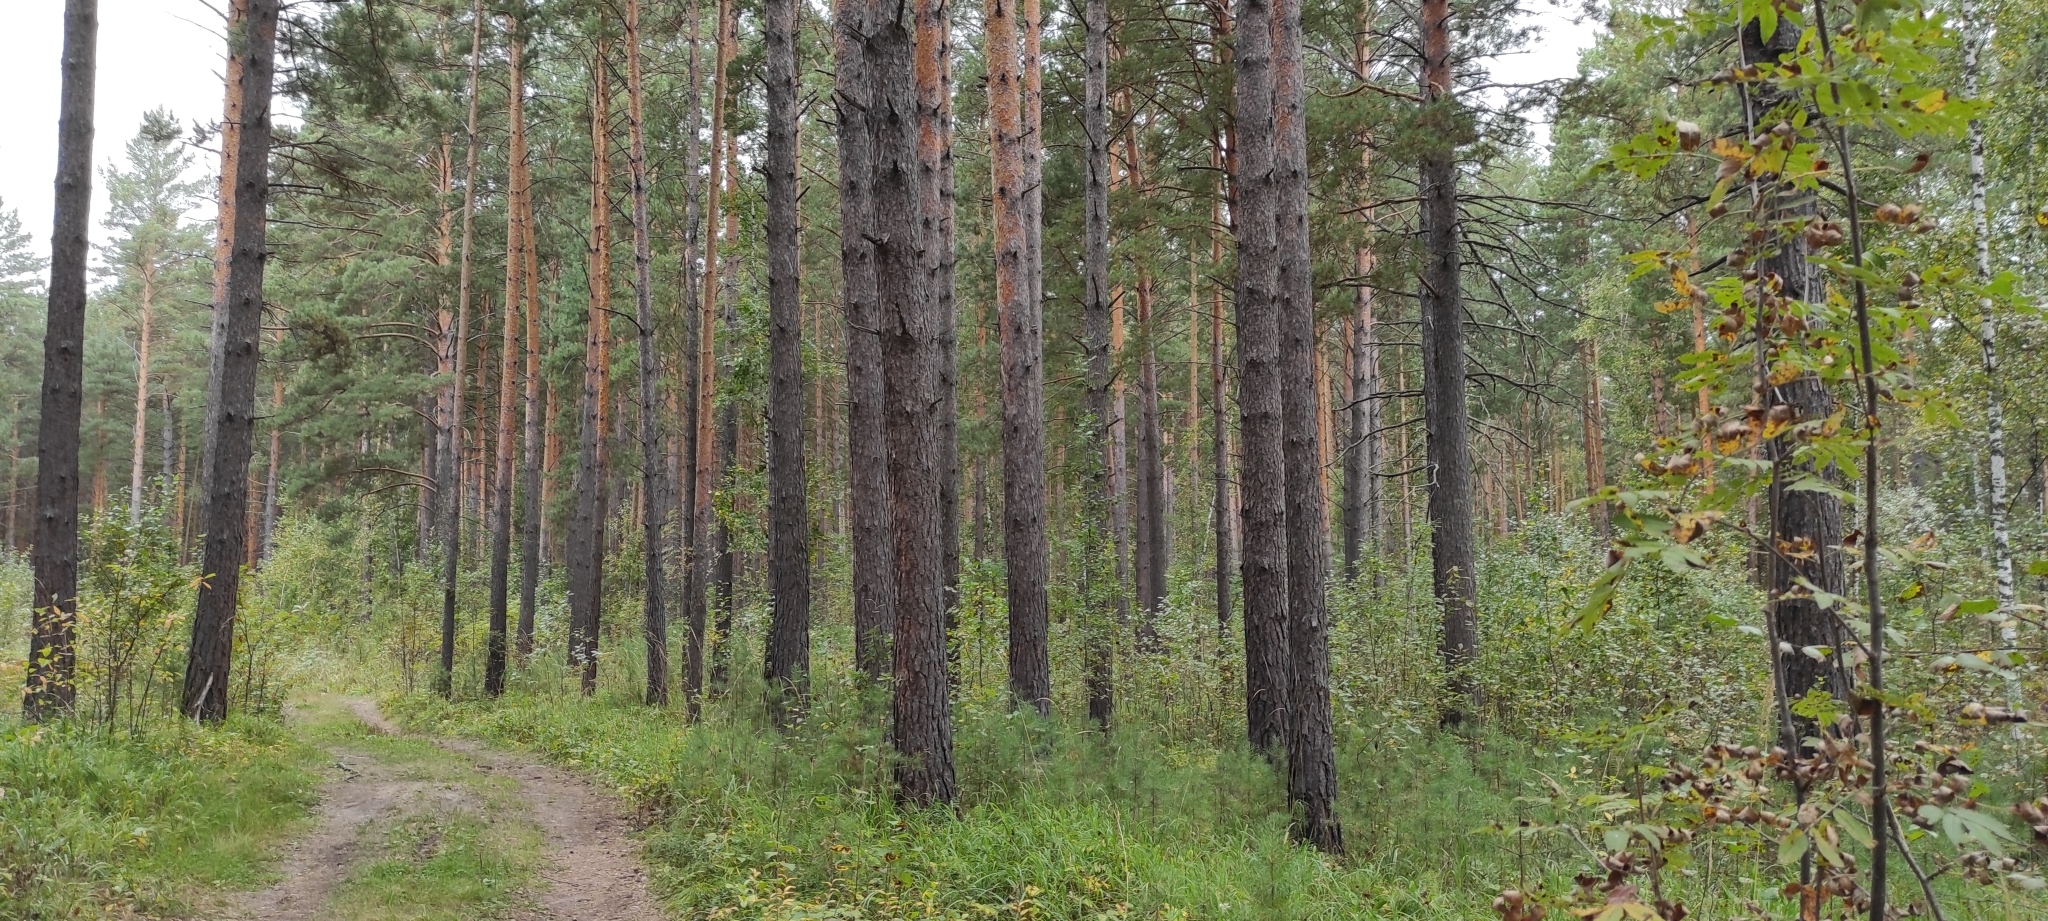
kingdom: Plantae
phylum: Tracheophyta
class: Pinopsida
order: Pinales
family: Pinaceae
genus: Pinus
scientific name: Pinus sylvestris
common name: Scots pine
